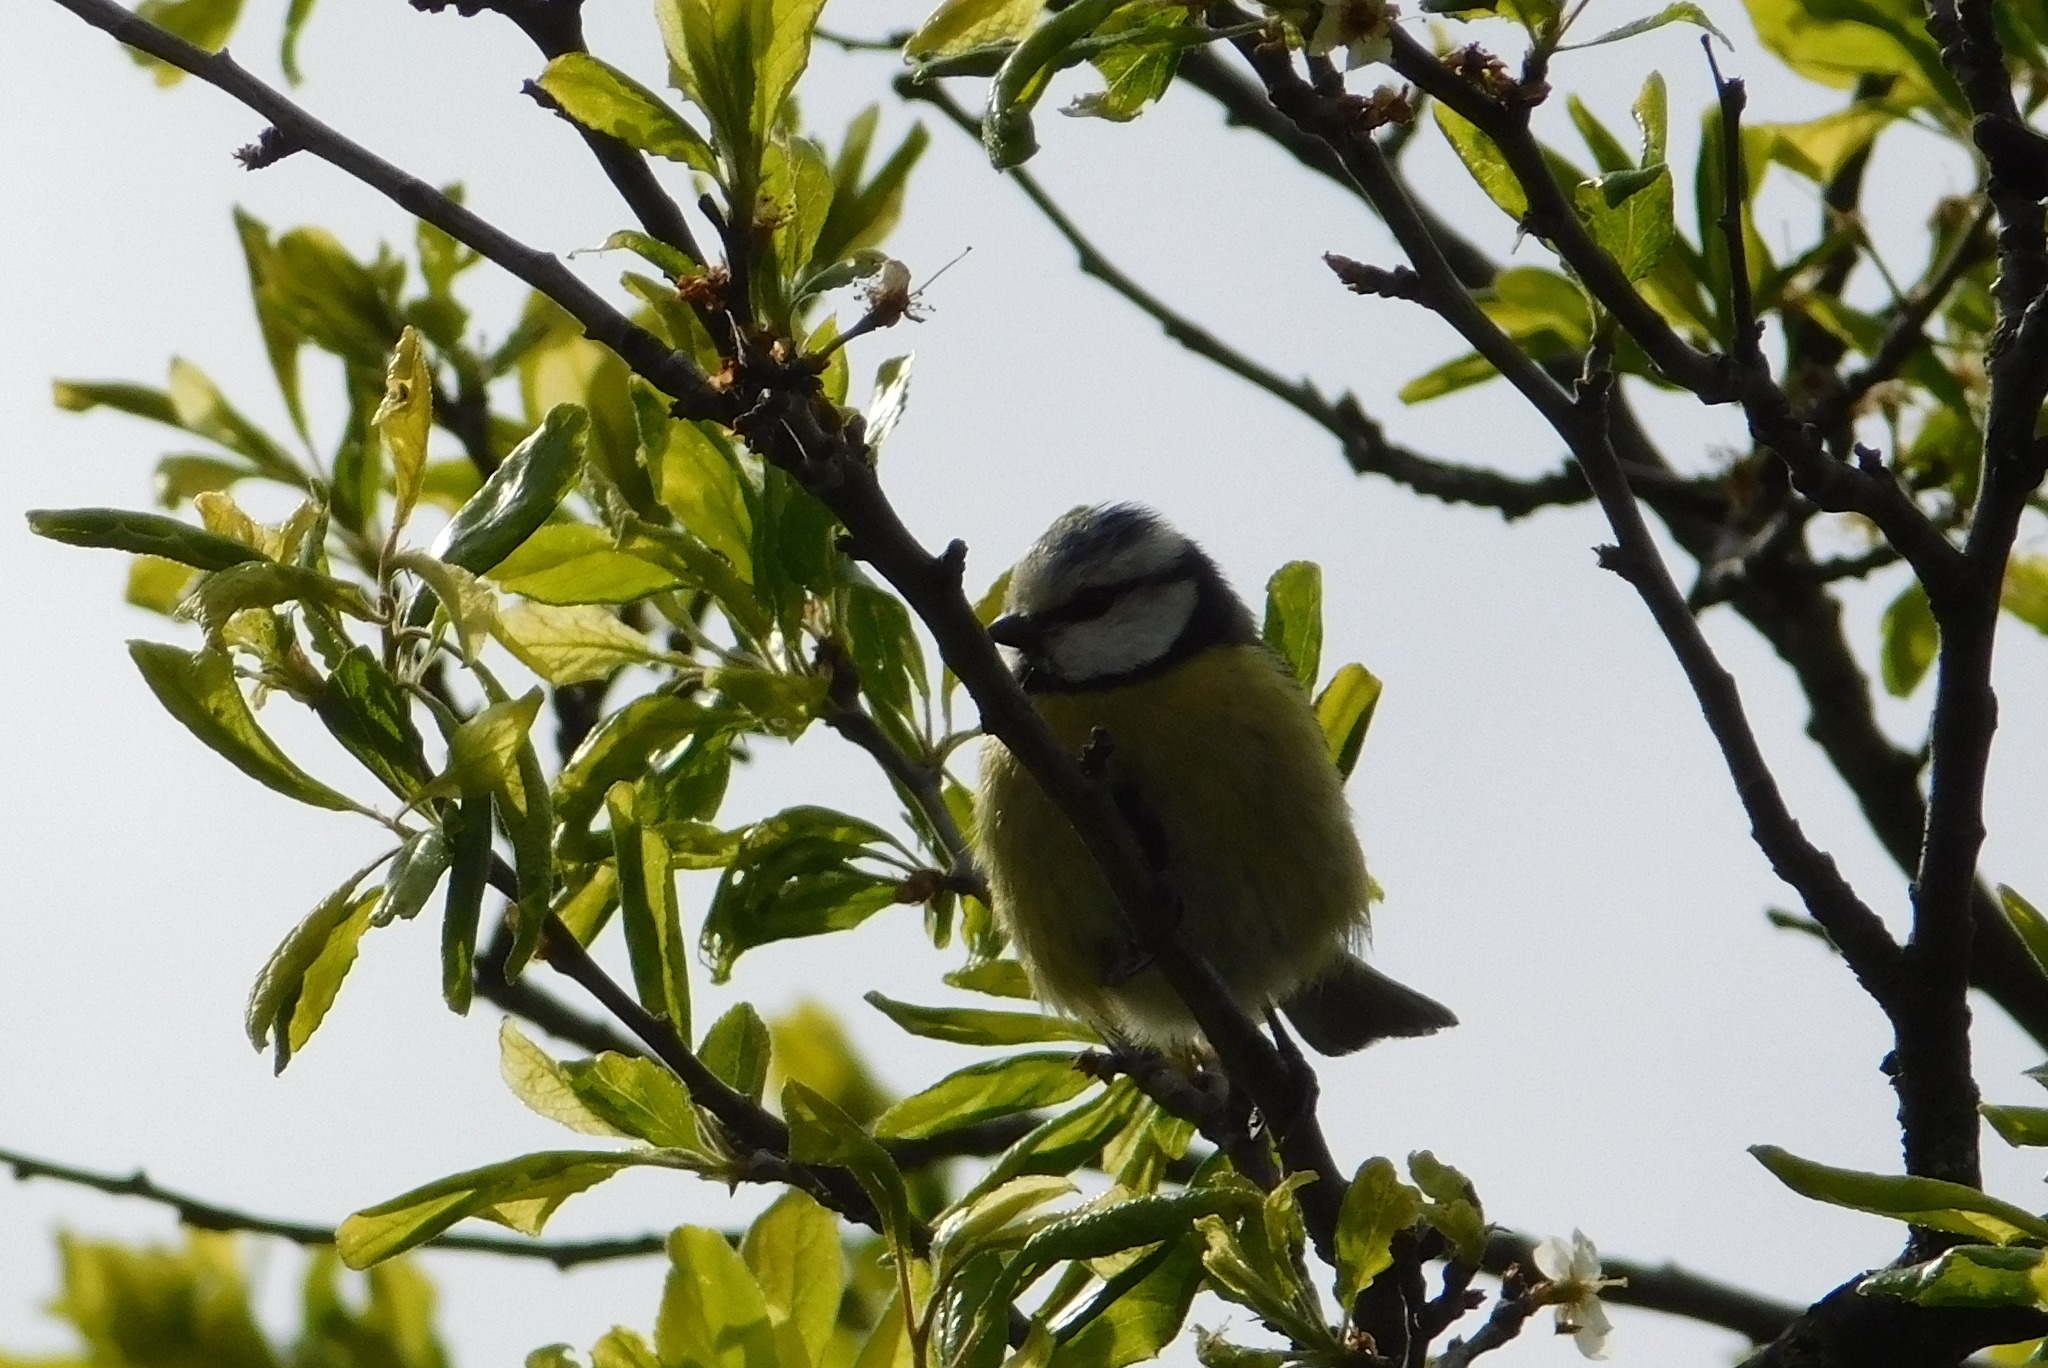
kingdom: Animalia
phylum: Chordata
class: Aves
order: Passeriformes
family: Paridae
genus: Cyanistes
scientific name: Cyanistes caeruleus
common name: Eurasian blue tit
